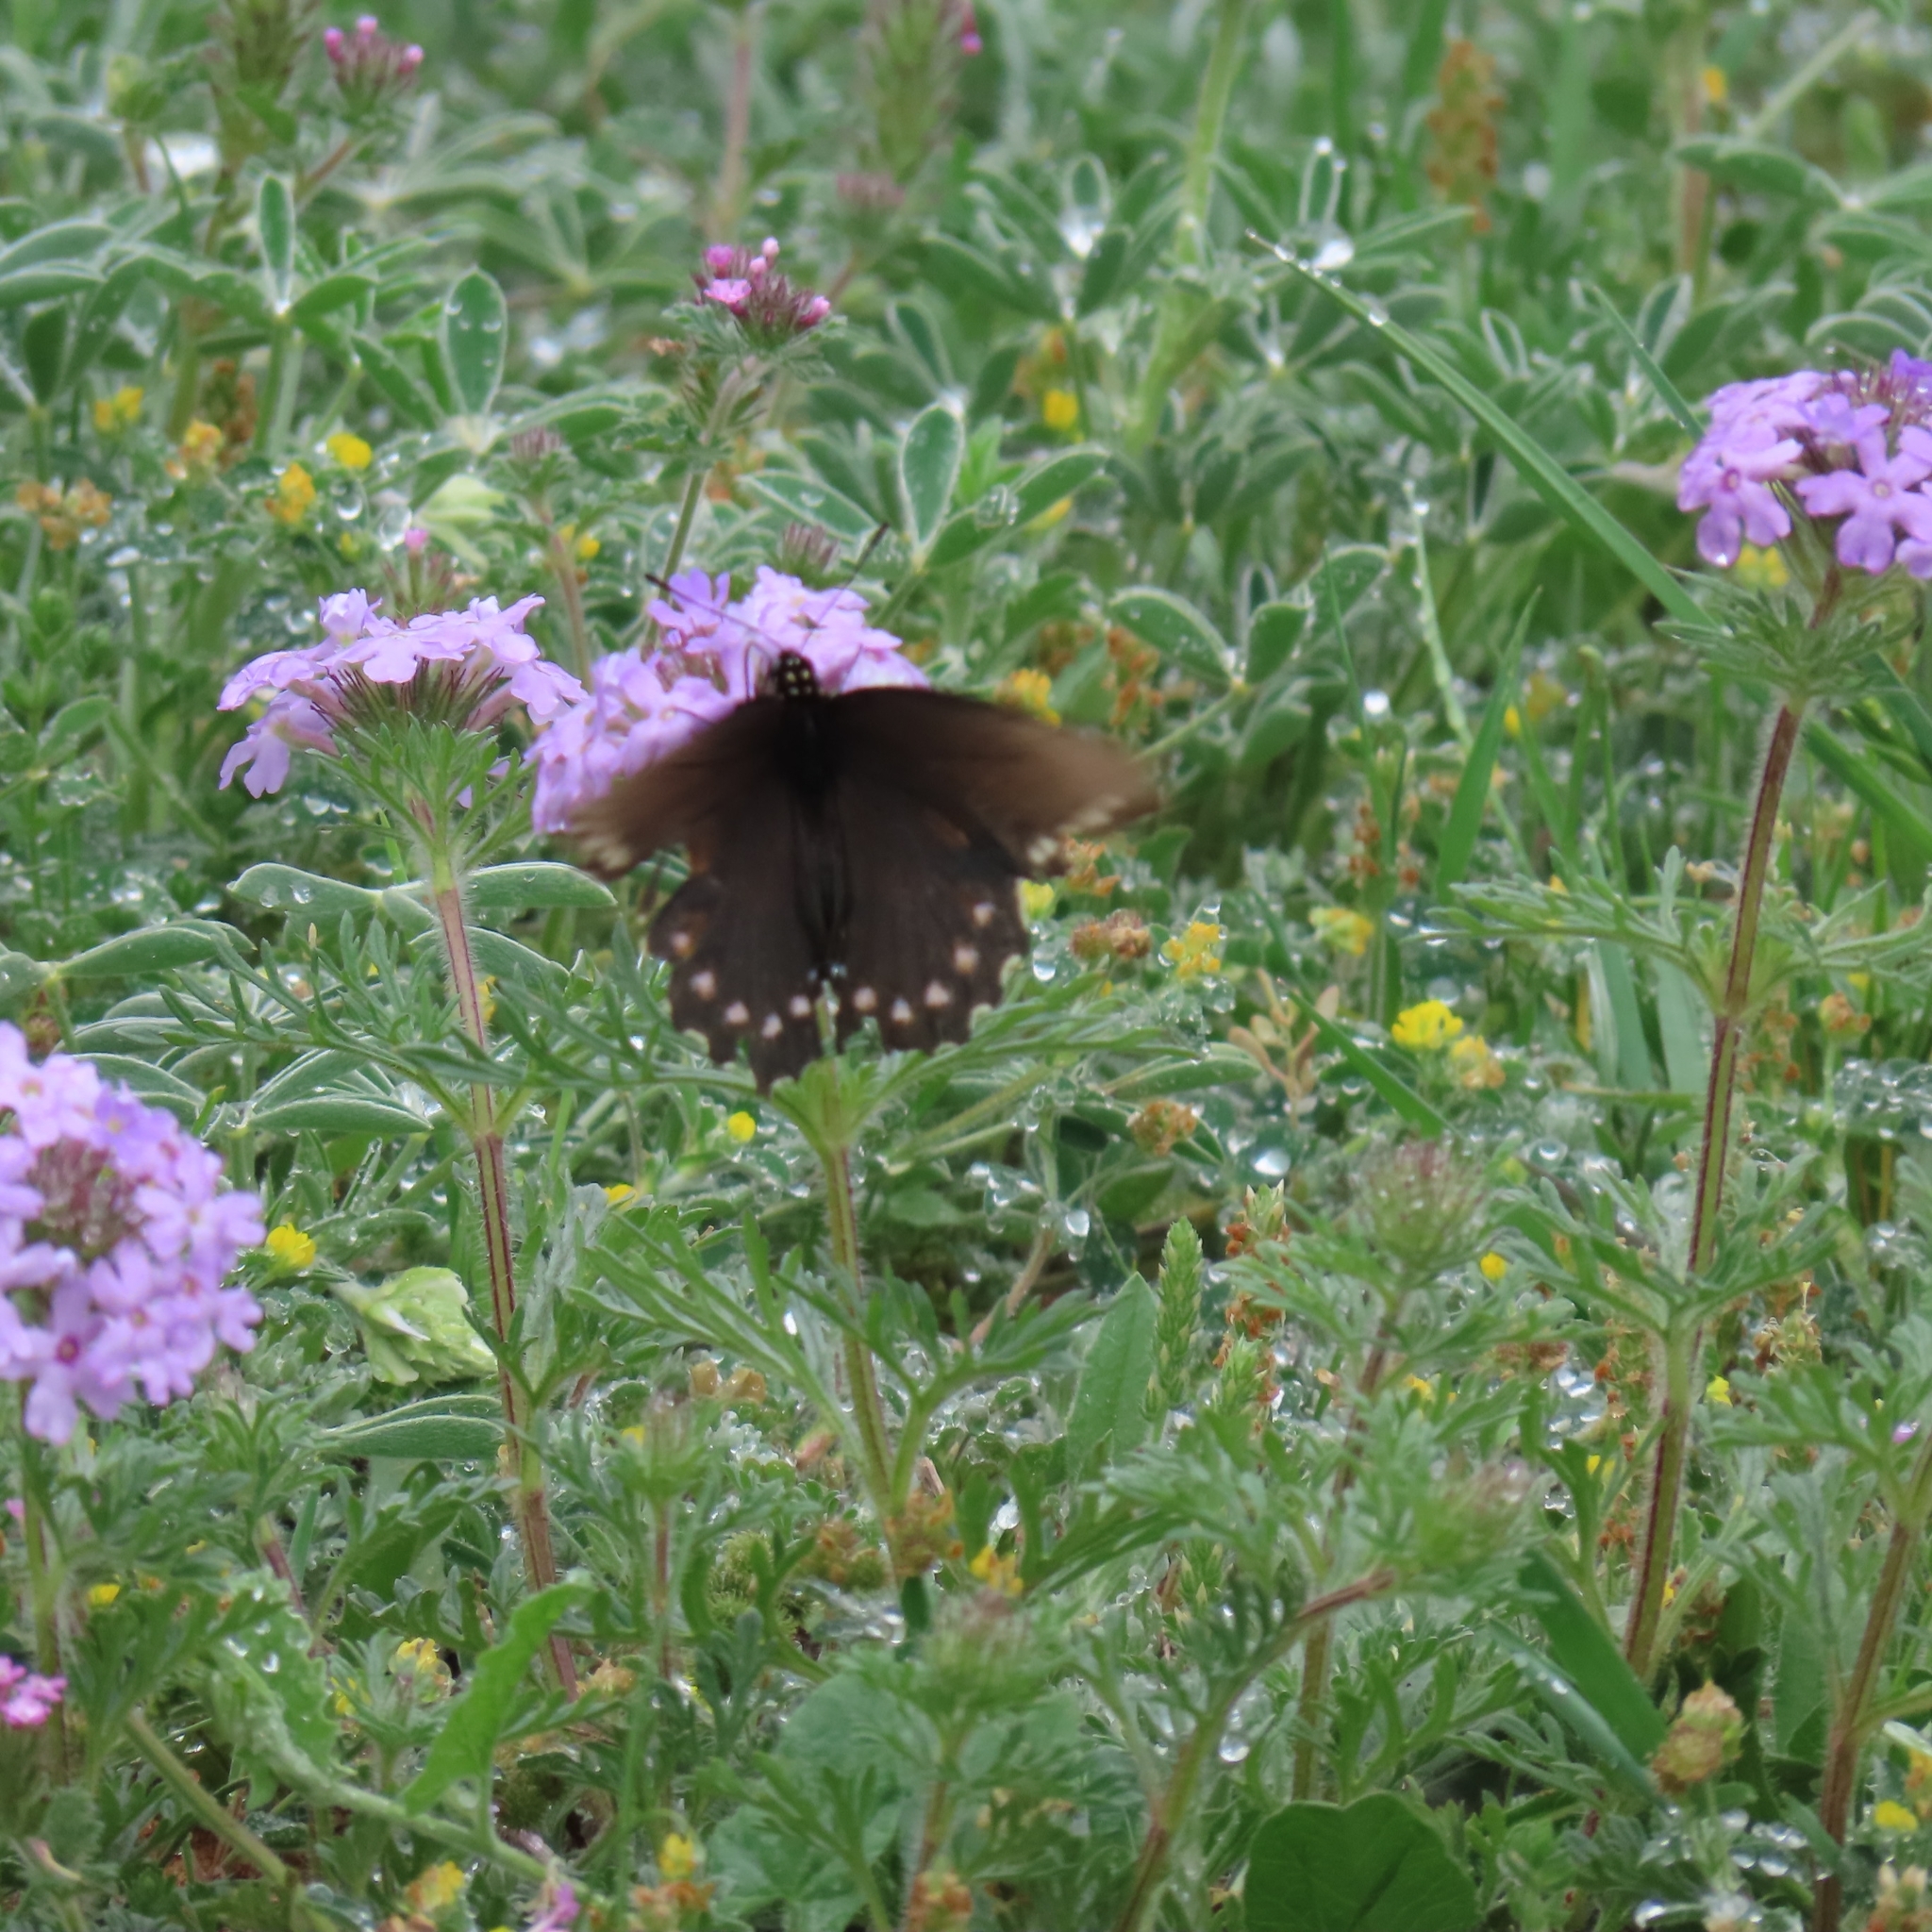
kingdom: Animalia
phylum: Arthropoda
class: Insecta
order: Lepidoptera
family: Papilionidae
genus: Battus
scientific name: Battus philenor
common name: Pipevine swallowtail
